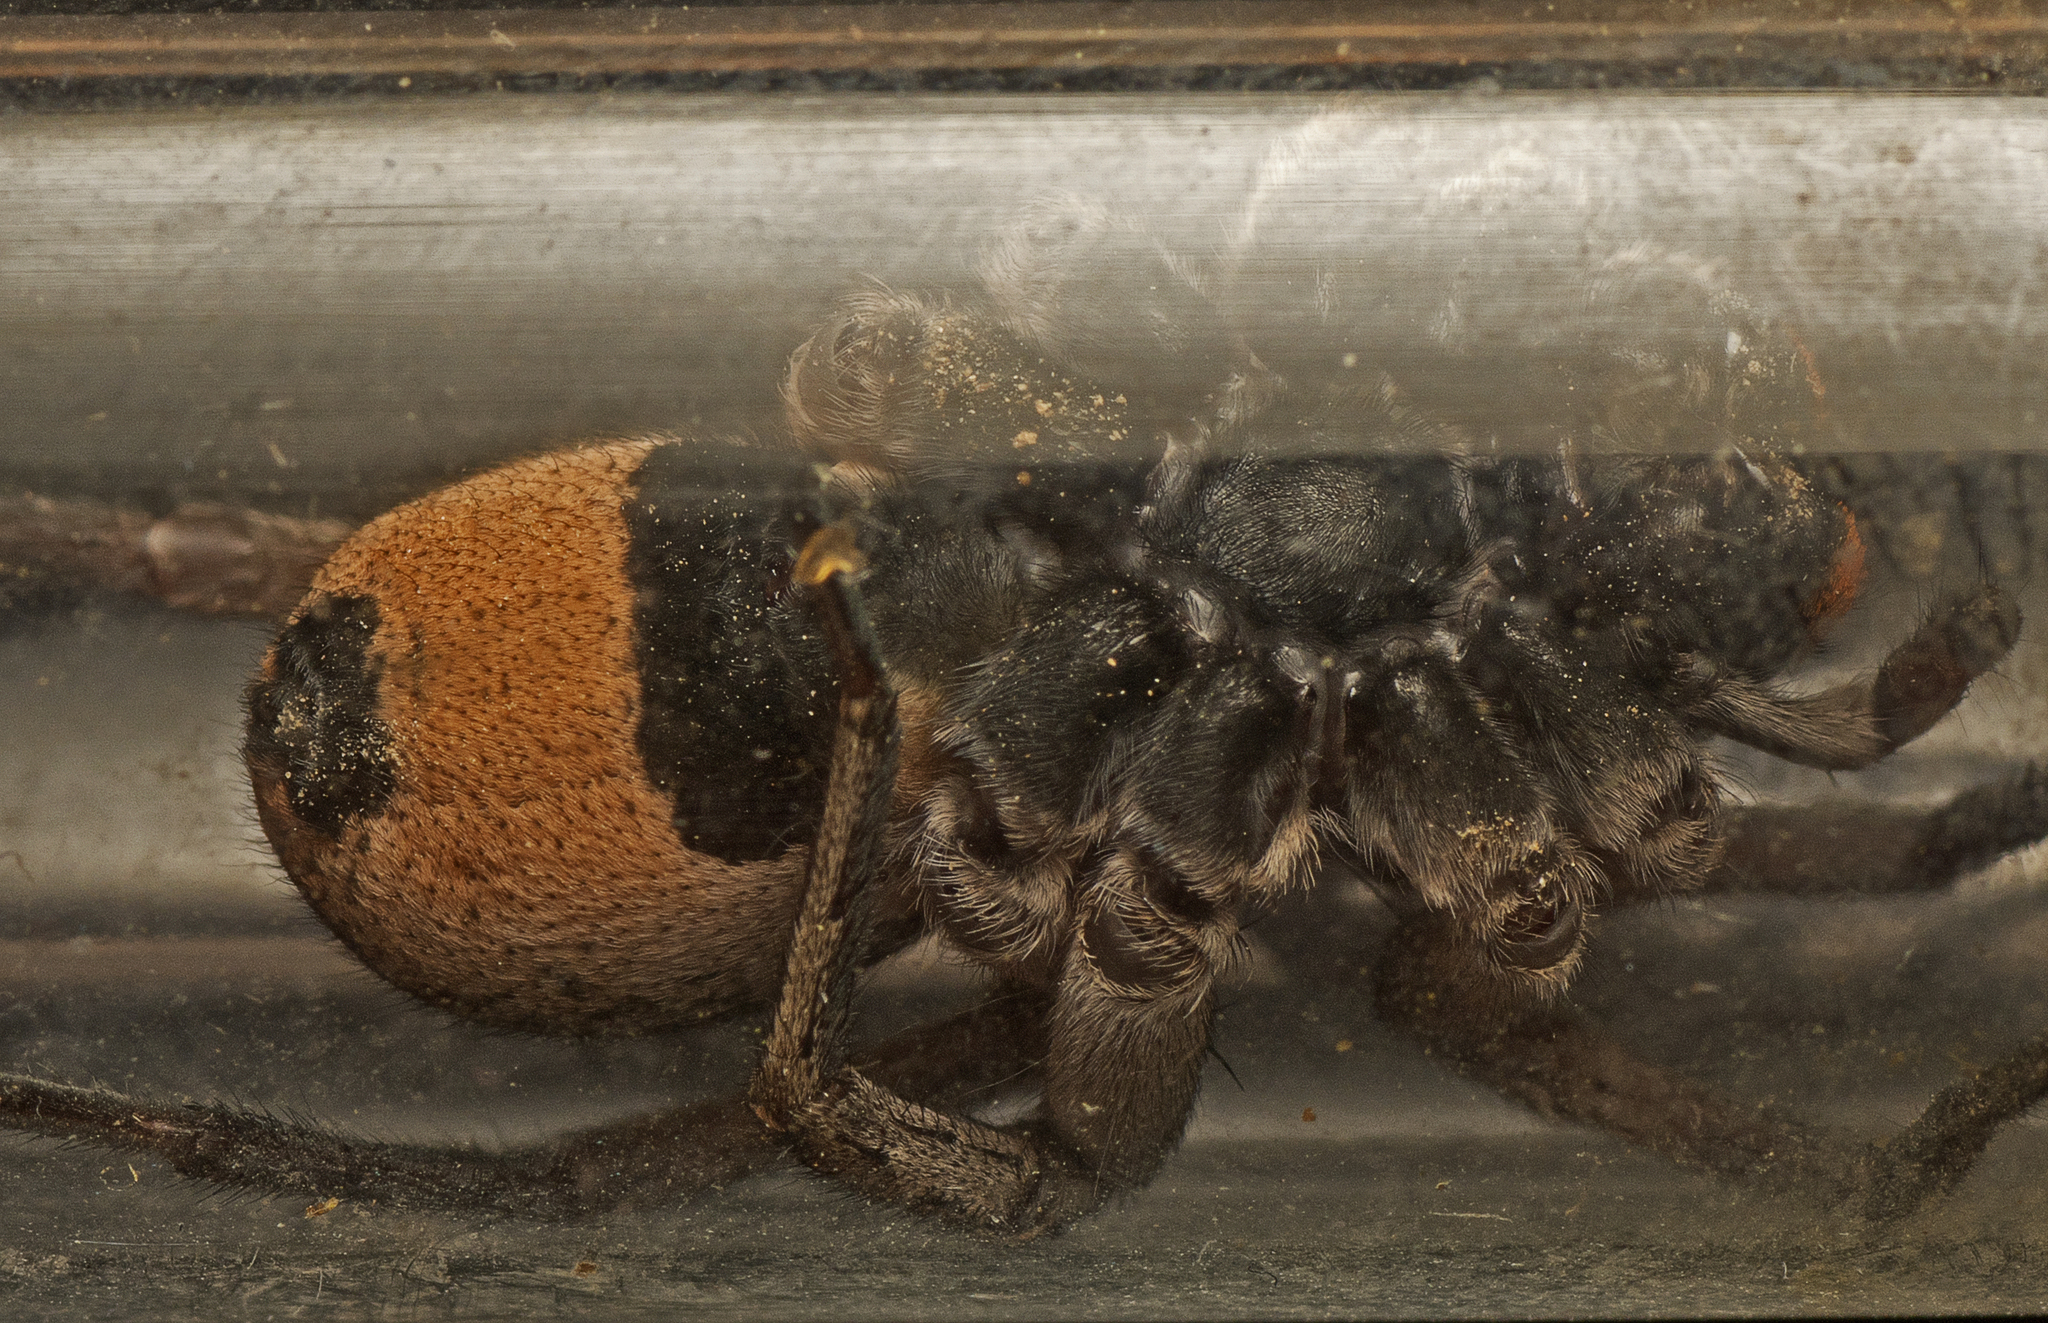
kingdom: Animalia
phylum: Arthropoda
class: Arachnida
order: Araneae
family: Lycosidae
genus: Venator
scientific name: Venator spenceri
